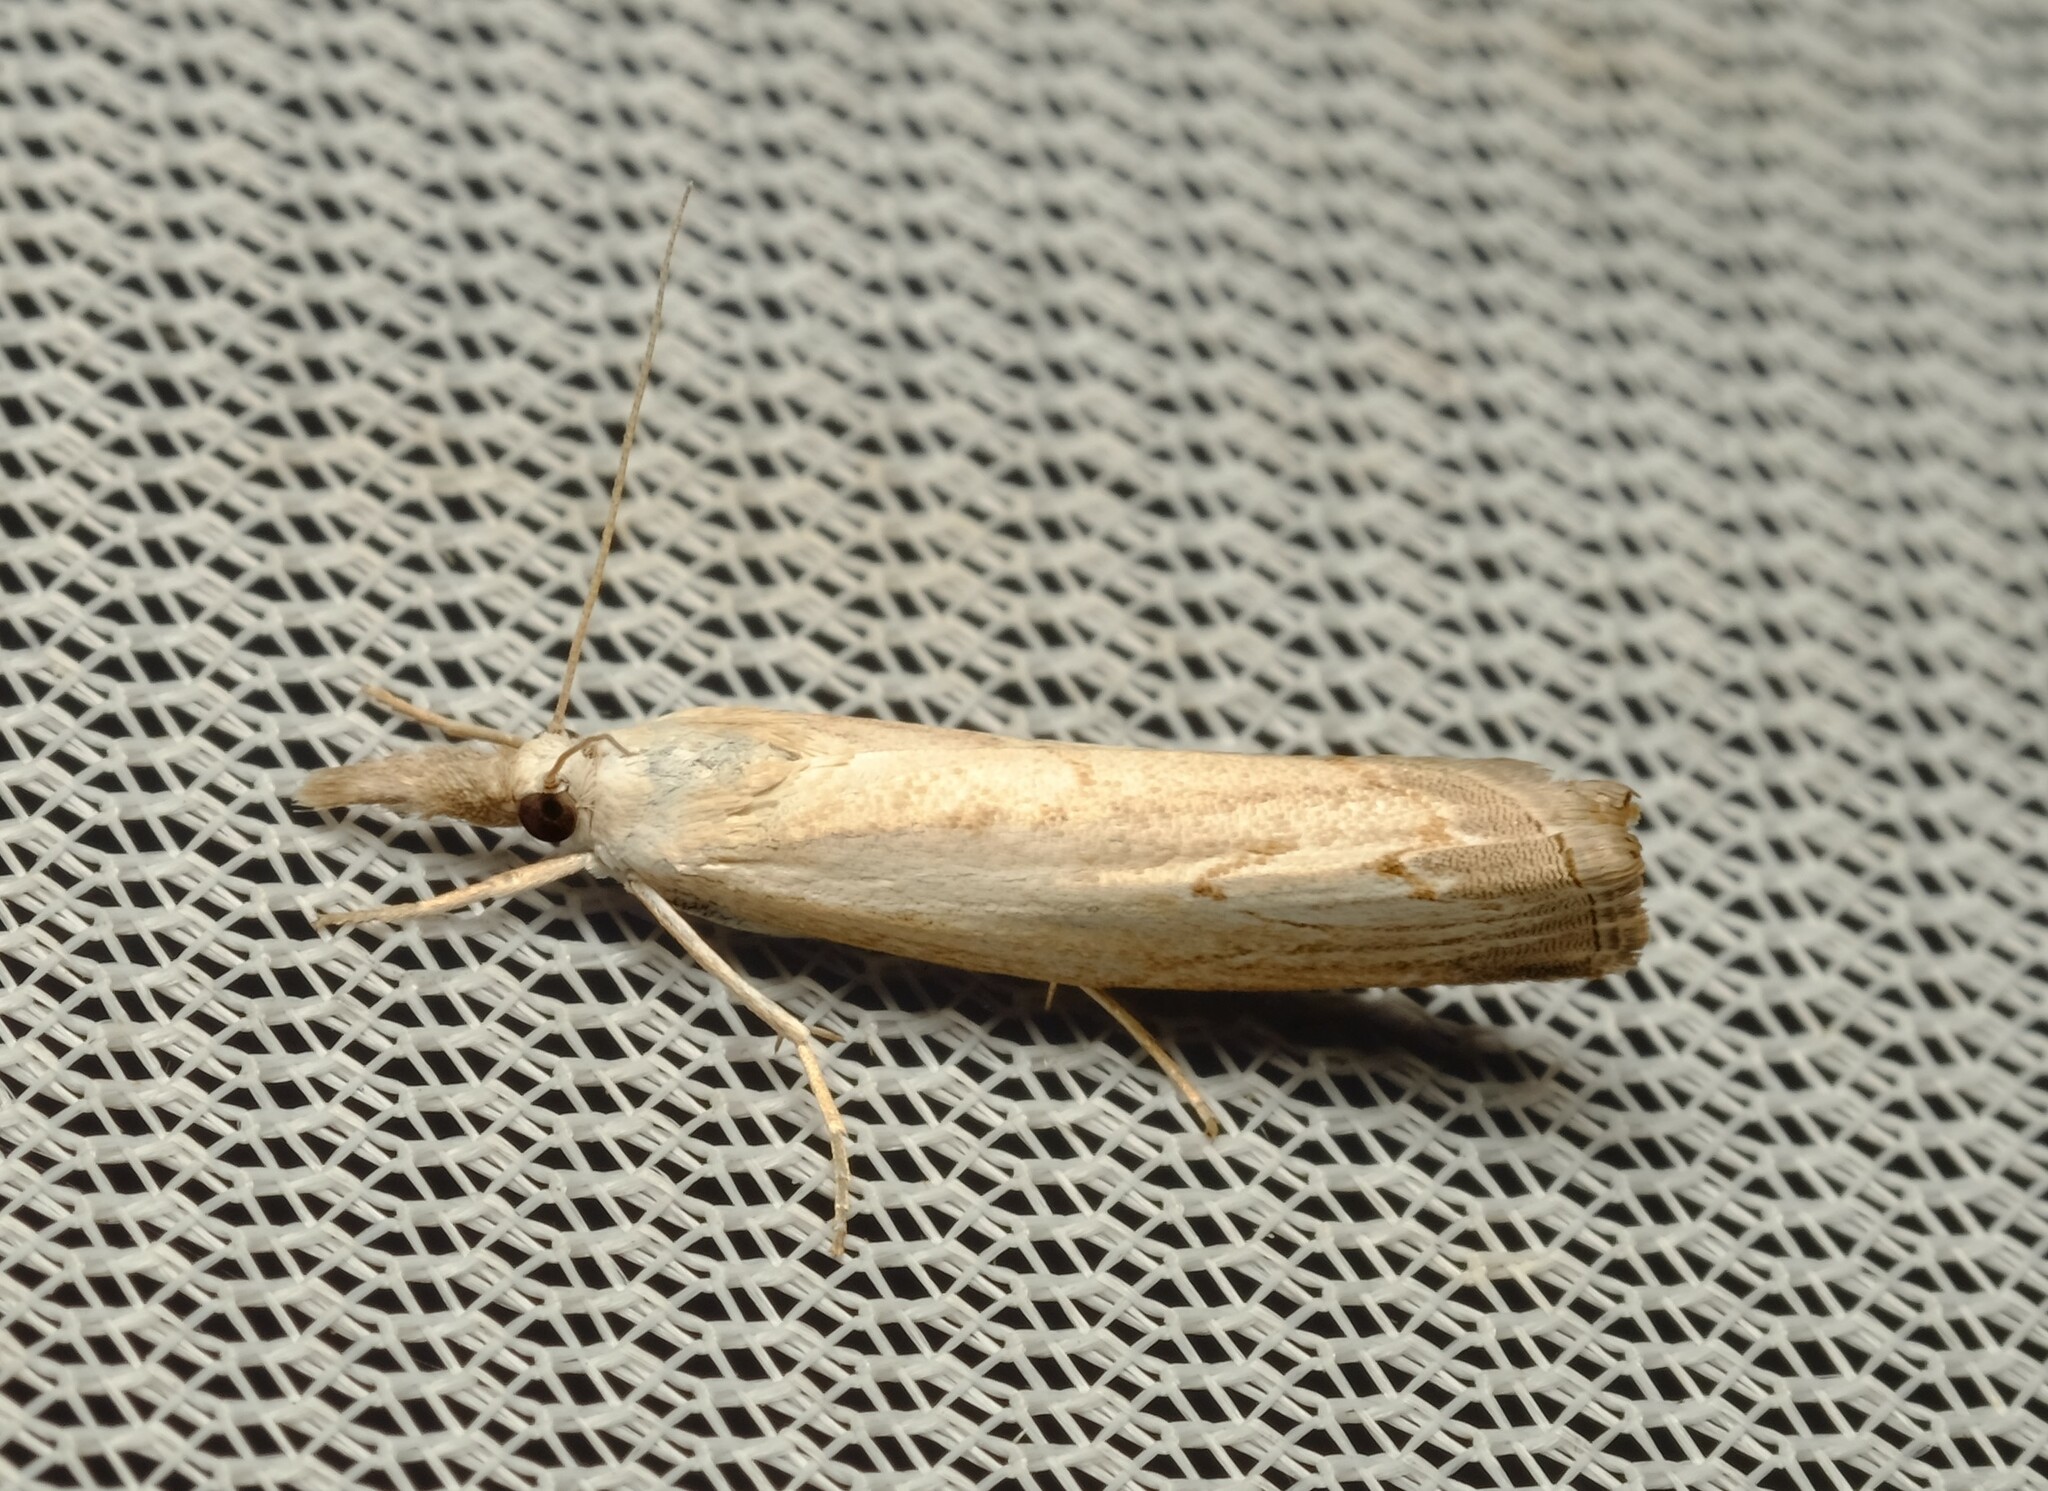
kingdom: Animalia
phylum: Arthropoda
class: Insecta
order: Lepidoptera
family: Crambidae
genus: Culladia
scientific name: Culladia cuneiferellus
